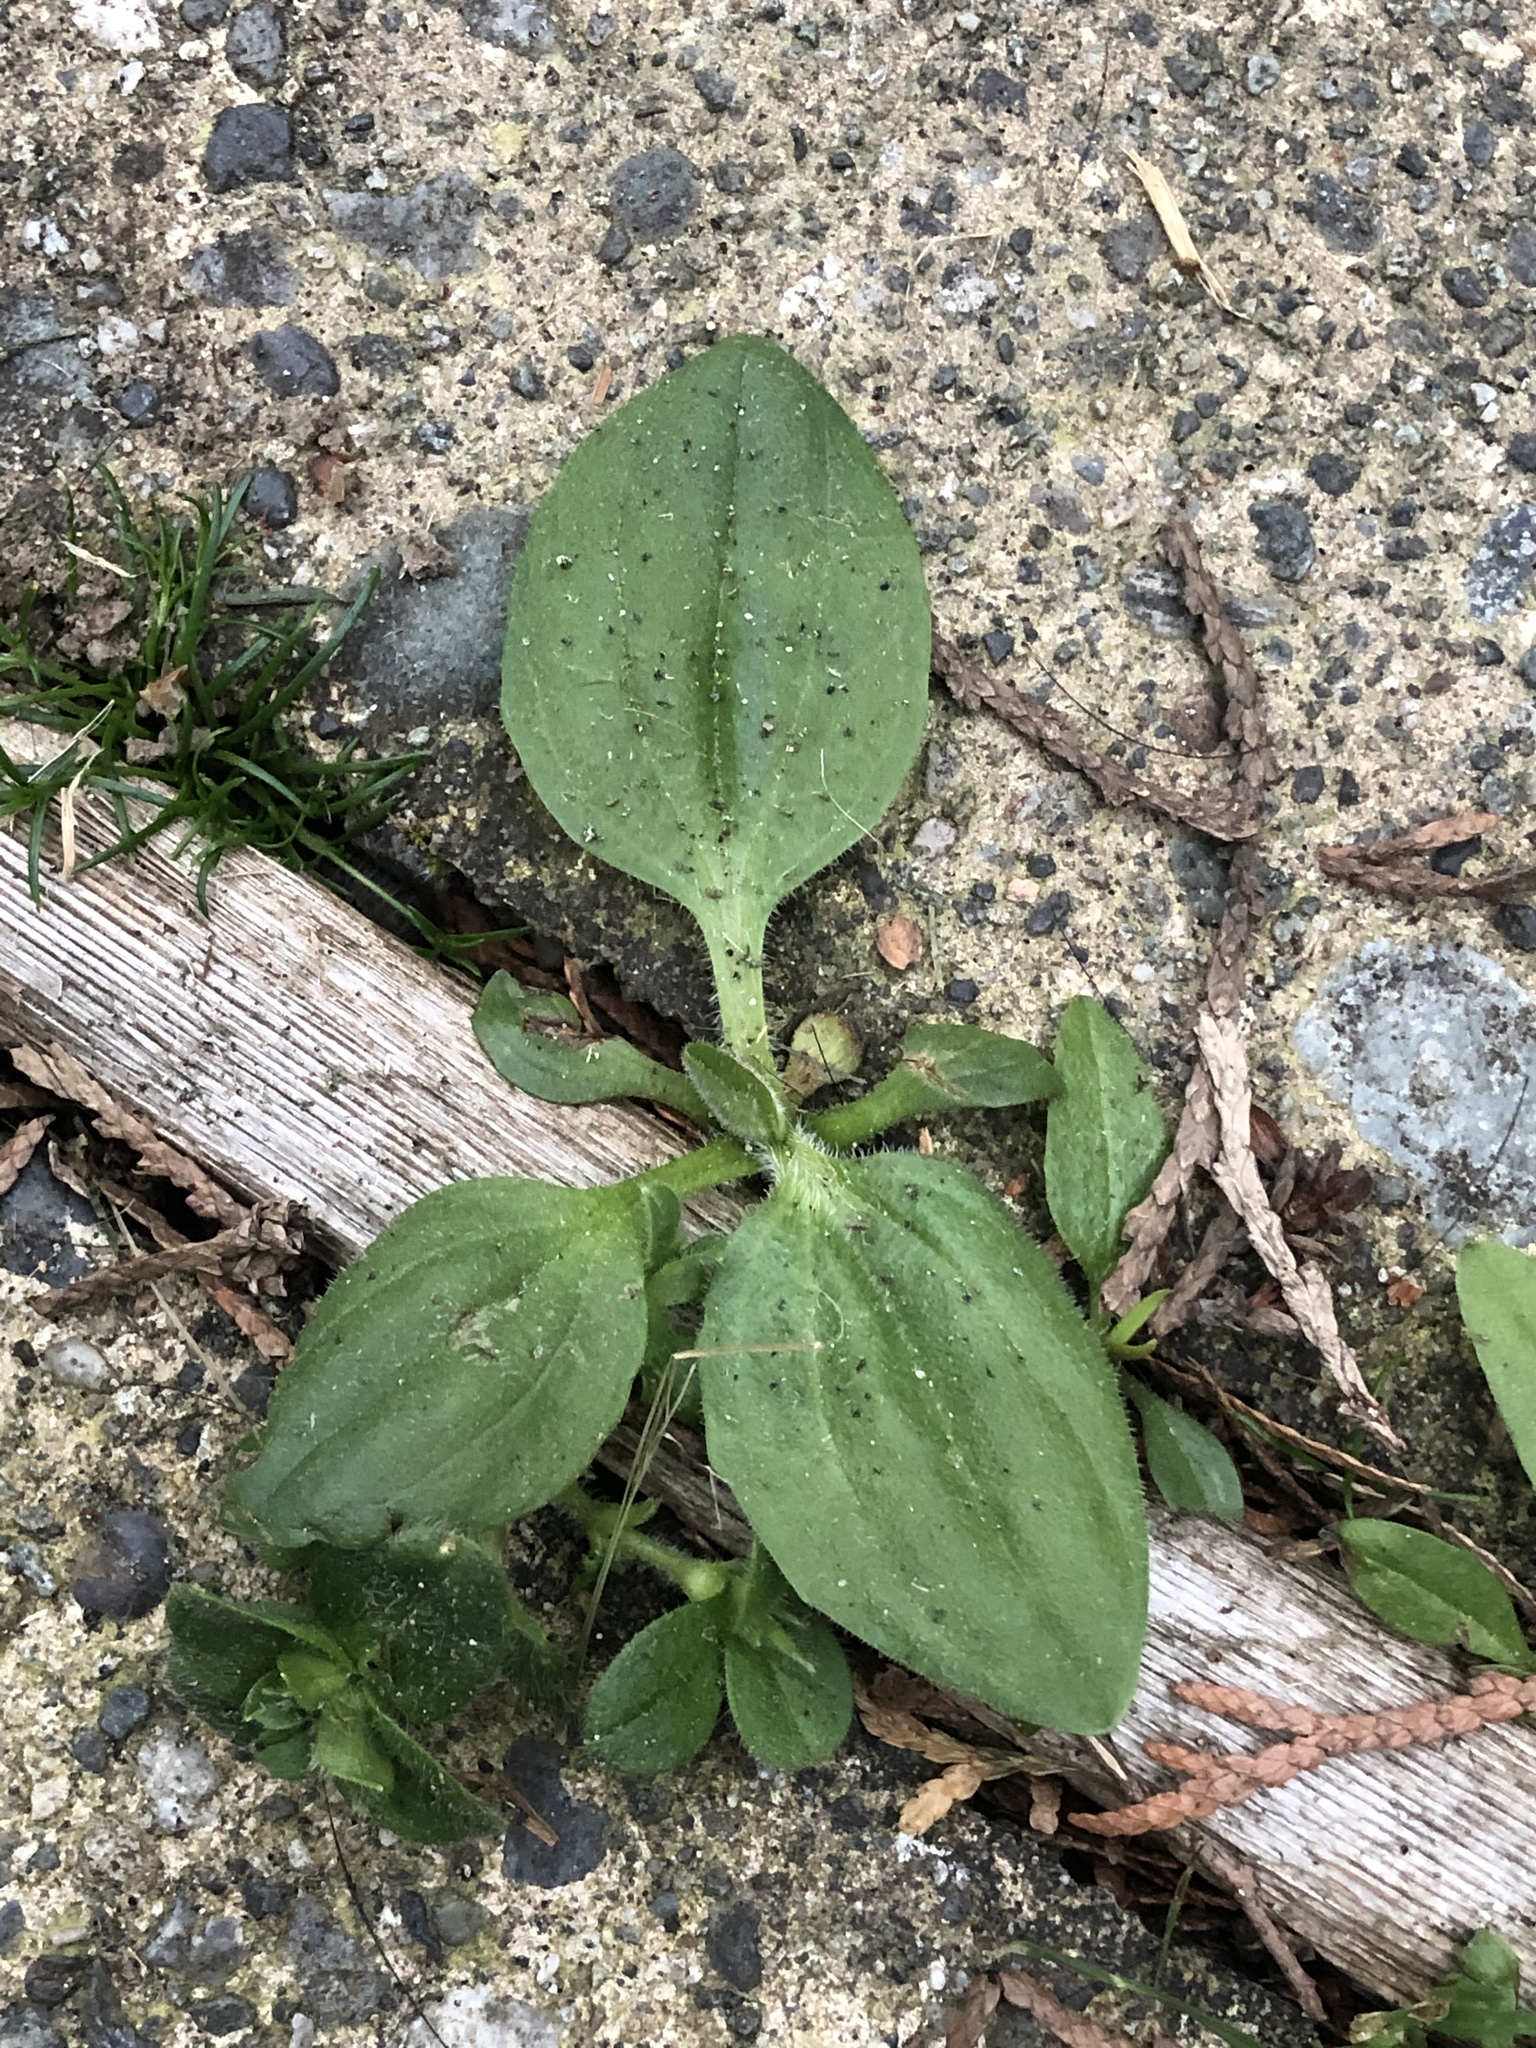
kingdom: Plantae
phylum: Tracheophyta
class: Magnoliopsida
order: Lamiales
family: Plantaginaceae
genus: Plantago
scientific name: Plantago major
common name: Common plantain
